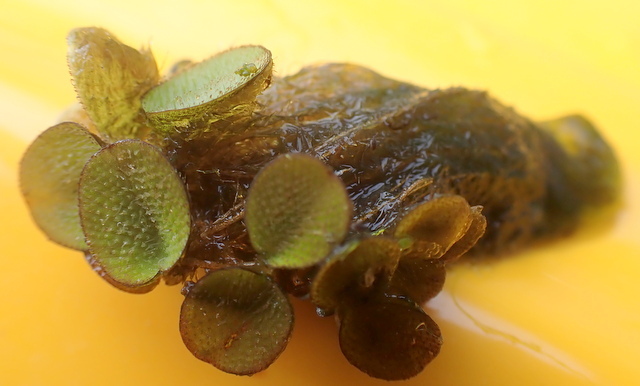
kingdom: Plantae
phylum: Tracheophyta
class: Polypodiopsida
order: Salviniales
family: Salviniaceae
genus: Salvinia
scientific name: Salvinia minima
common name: Water spangles
